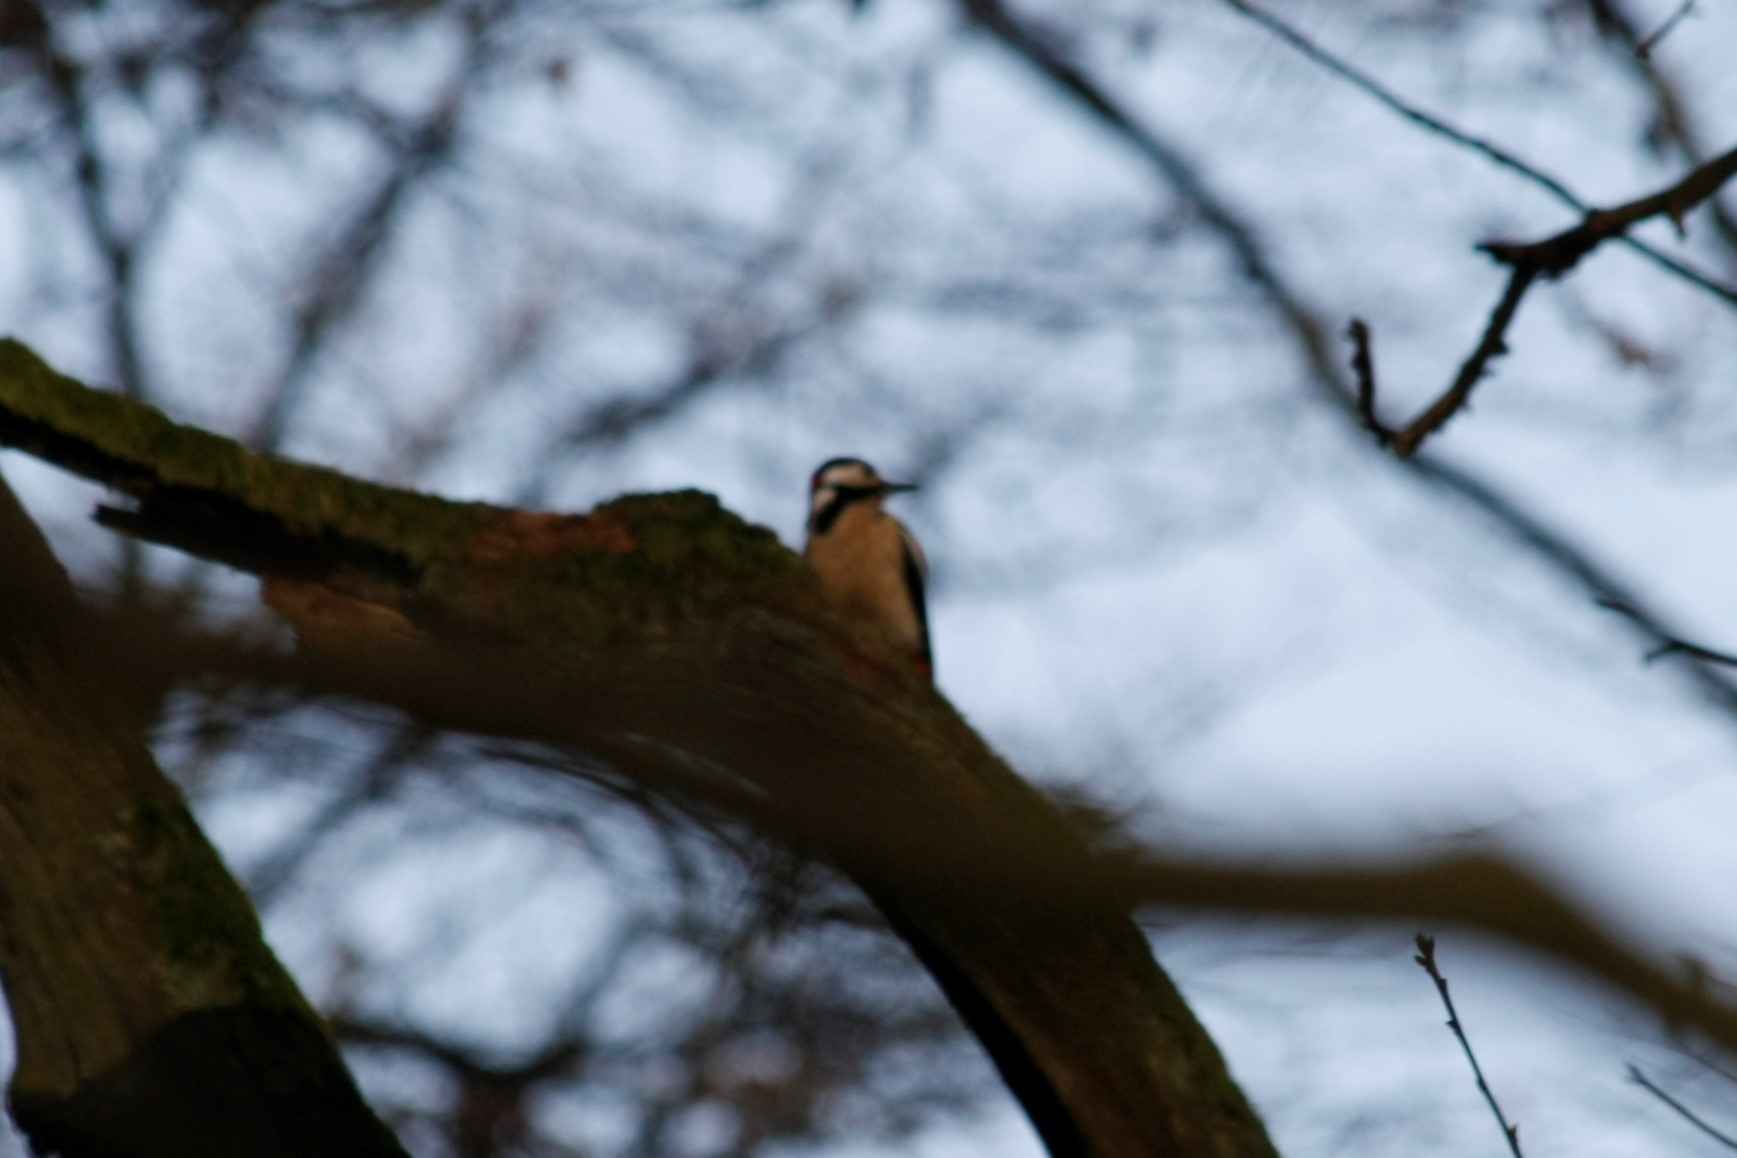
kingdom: Animalia
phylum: Chordata
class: Aves
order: Piciformes
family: Picidae
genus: Dendrocopos
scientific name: Dendrocopos major
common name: Great spotted woodpecker
